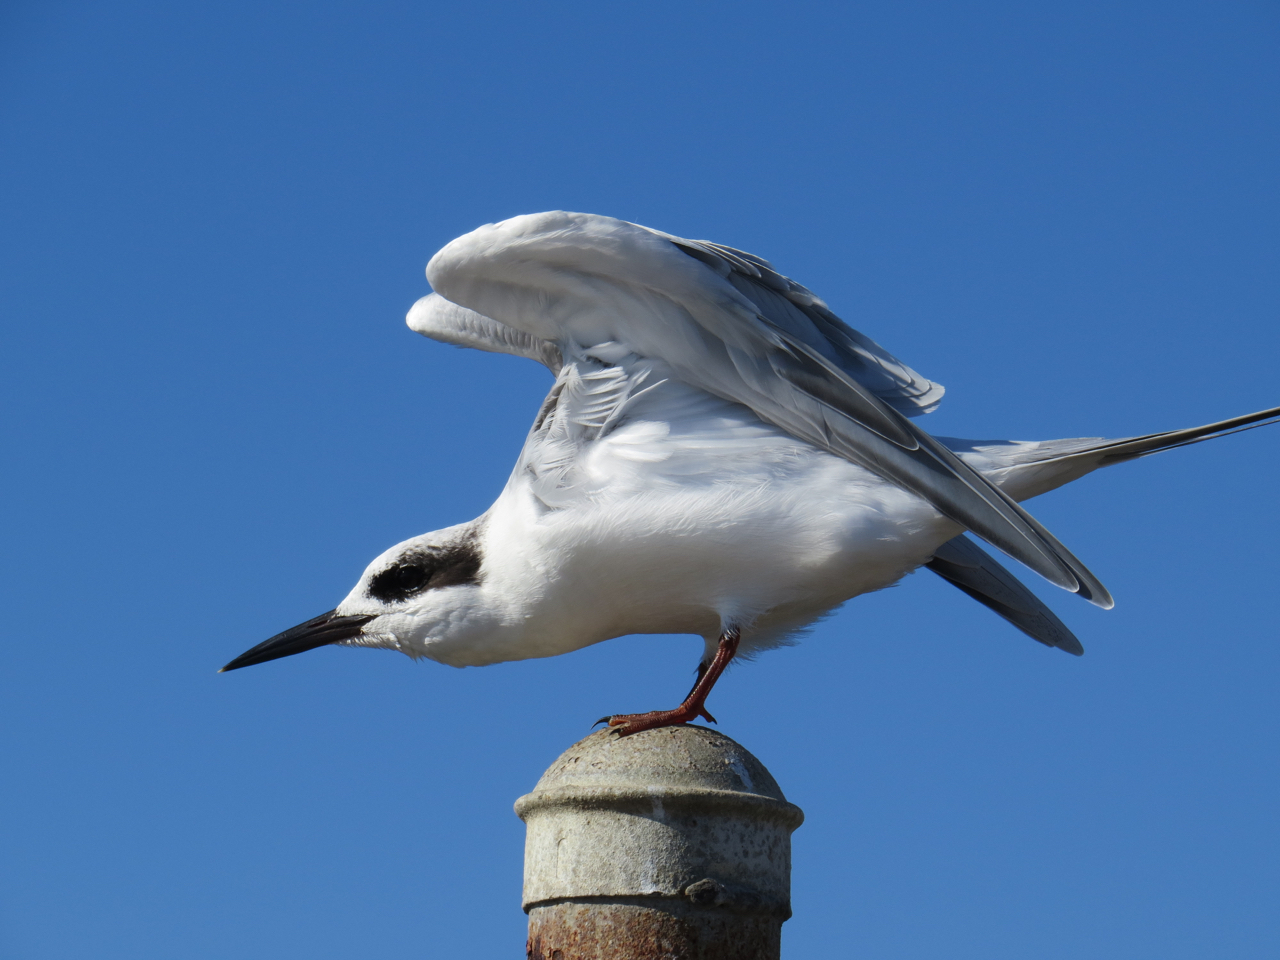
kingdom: Animalia
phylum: Chordata
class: Aves
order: Charadriiformes
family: Laridae
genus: Sterna
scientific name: Sterna forsteri
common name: Forster's tern
